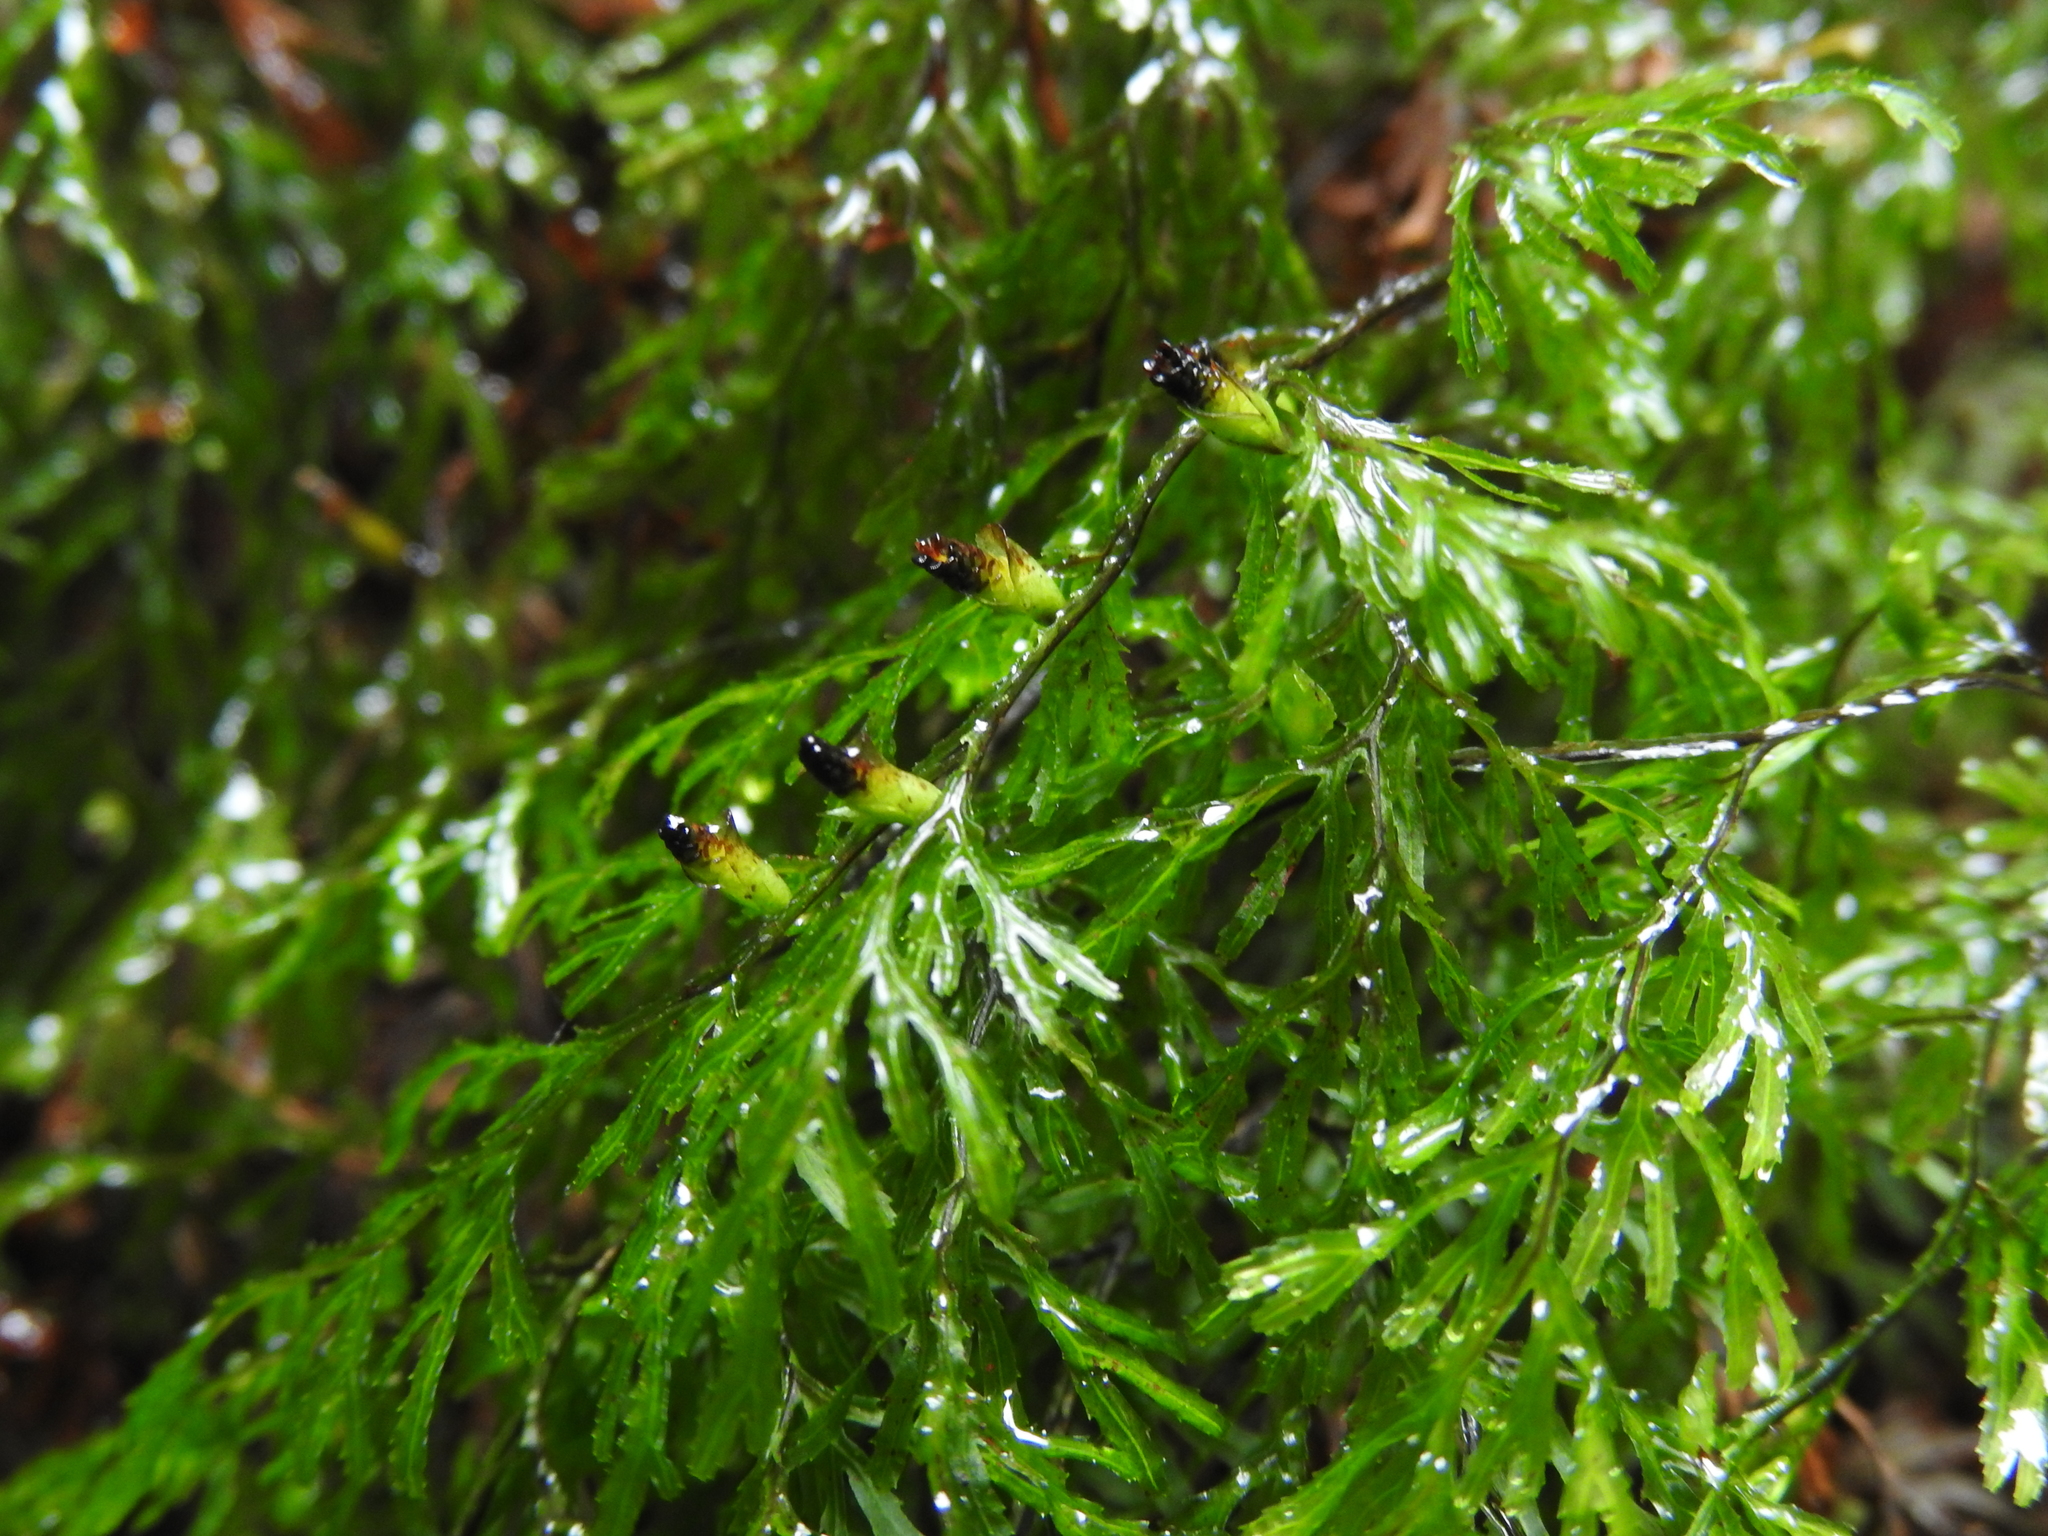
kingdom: Plantae
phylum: Tracheophyta
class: Polypodiopsida
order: Hymenophyllales
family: Hymenophyllaceae
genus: Hymenophyllum
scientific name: Hymenophyllum multifidum
